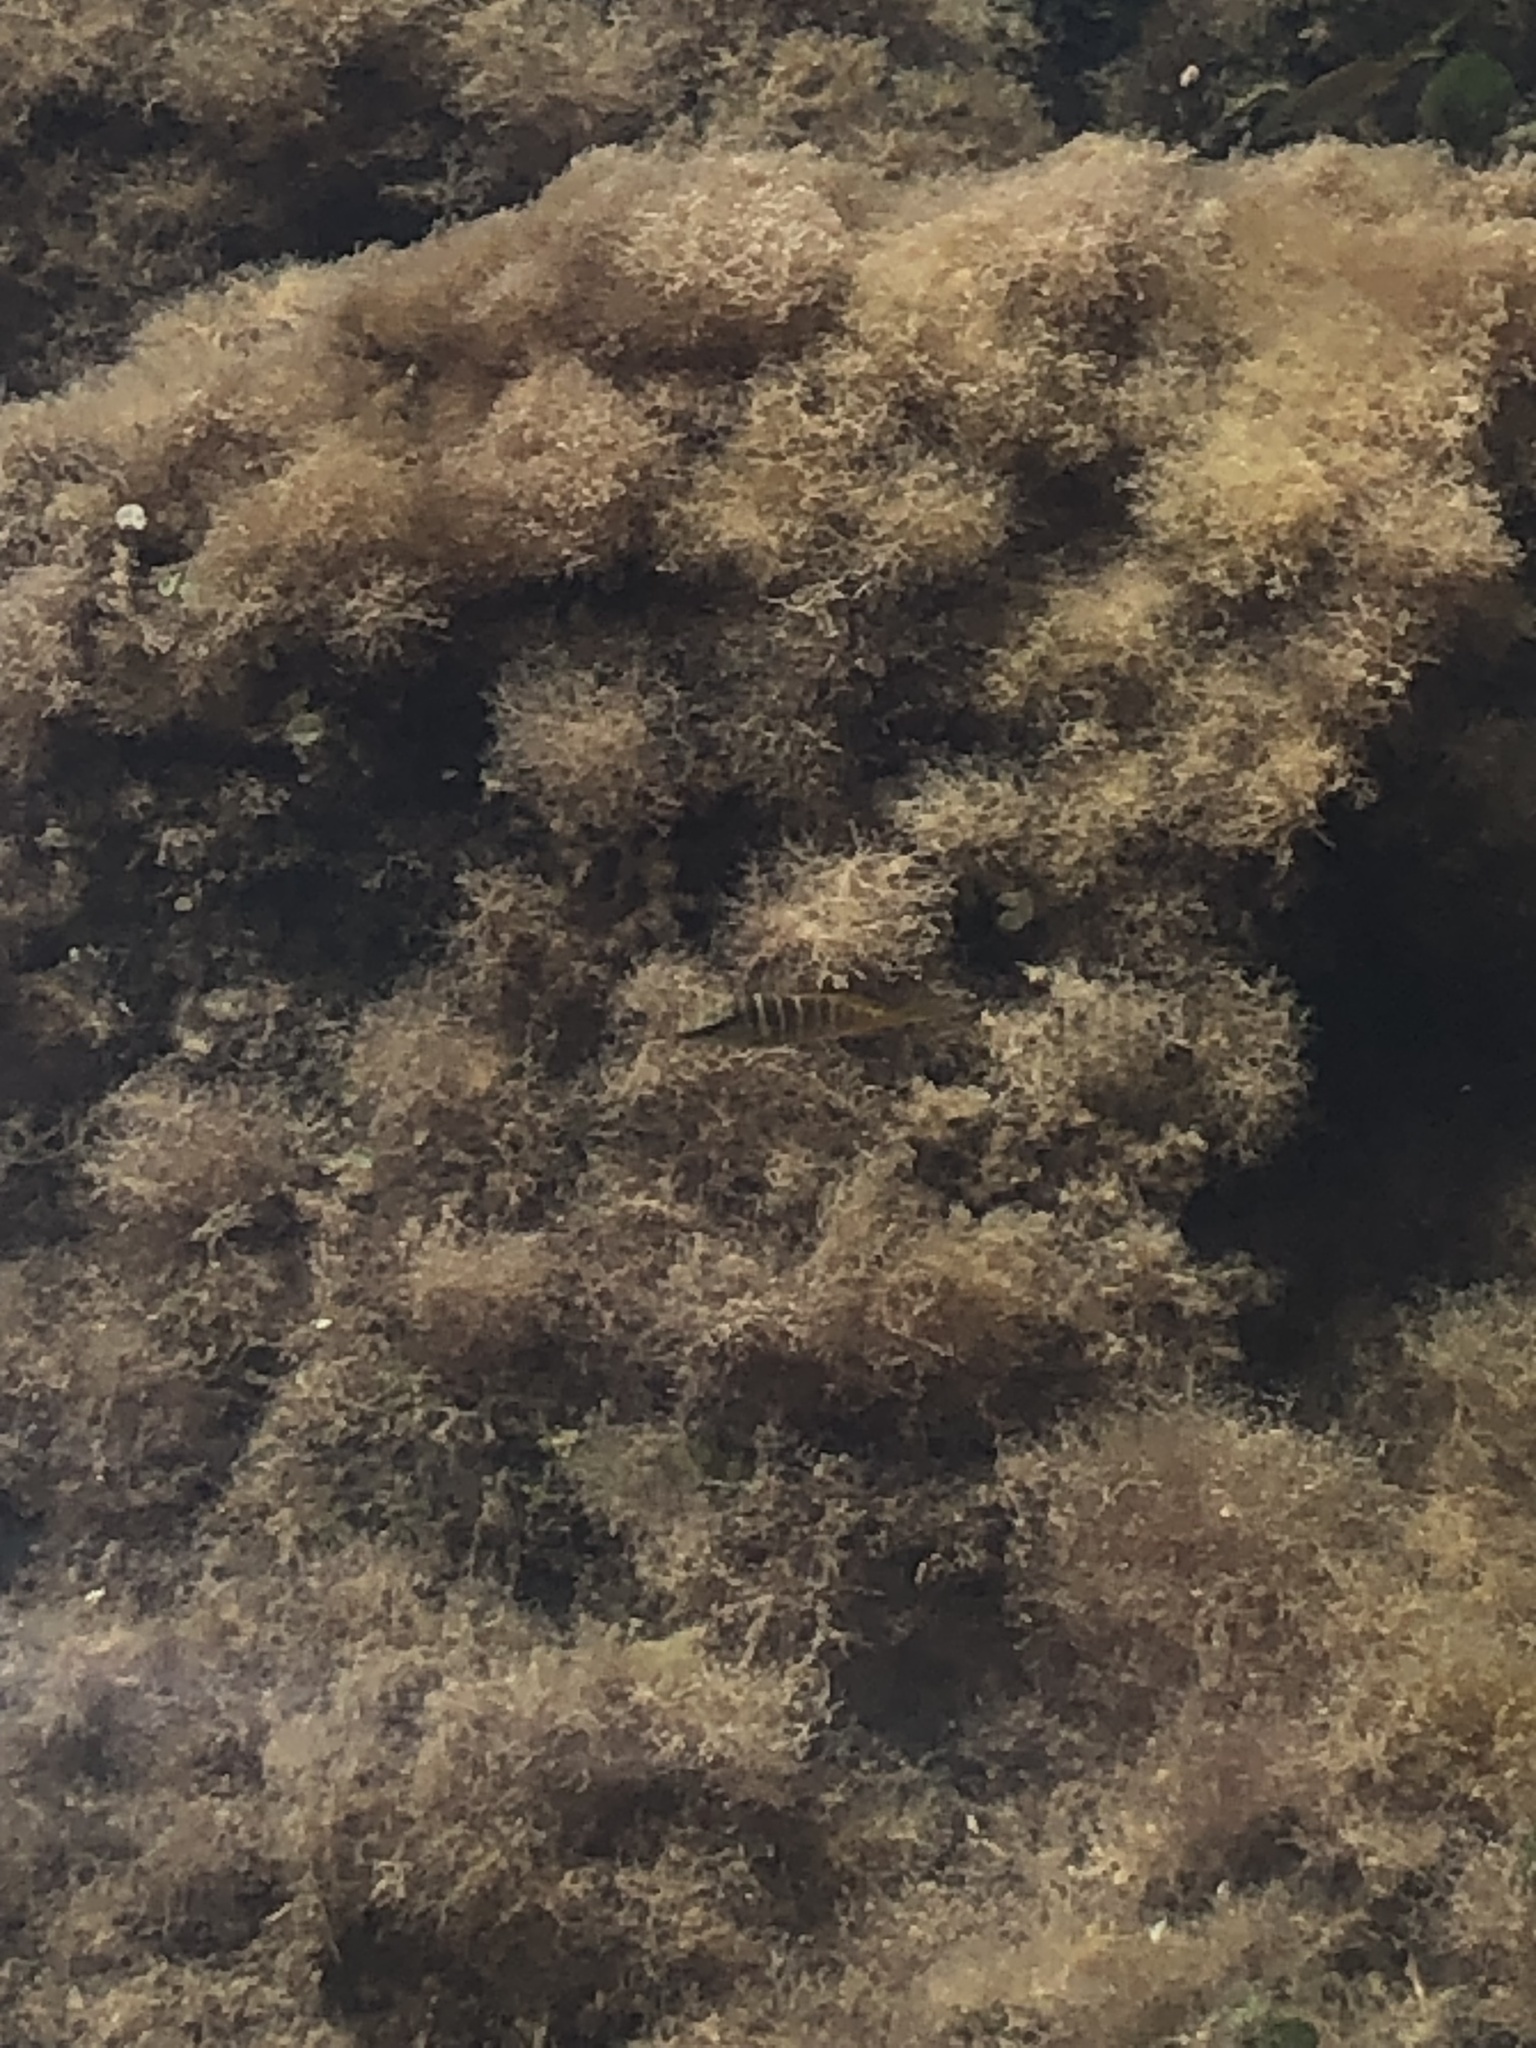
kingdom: Animalia
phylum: Chordata
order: Perciformes
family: Lutjanidae
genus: Lutjanus
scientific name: Lutjanus apodus
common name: Schoolmaster
